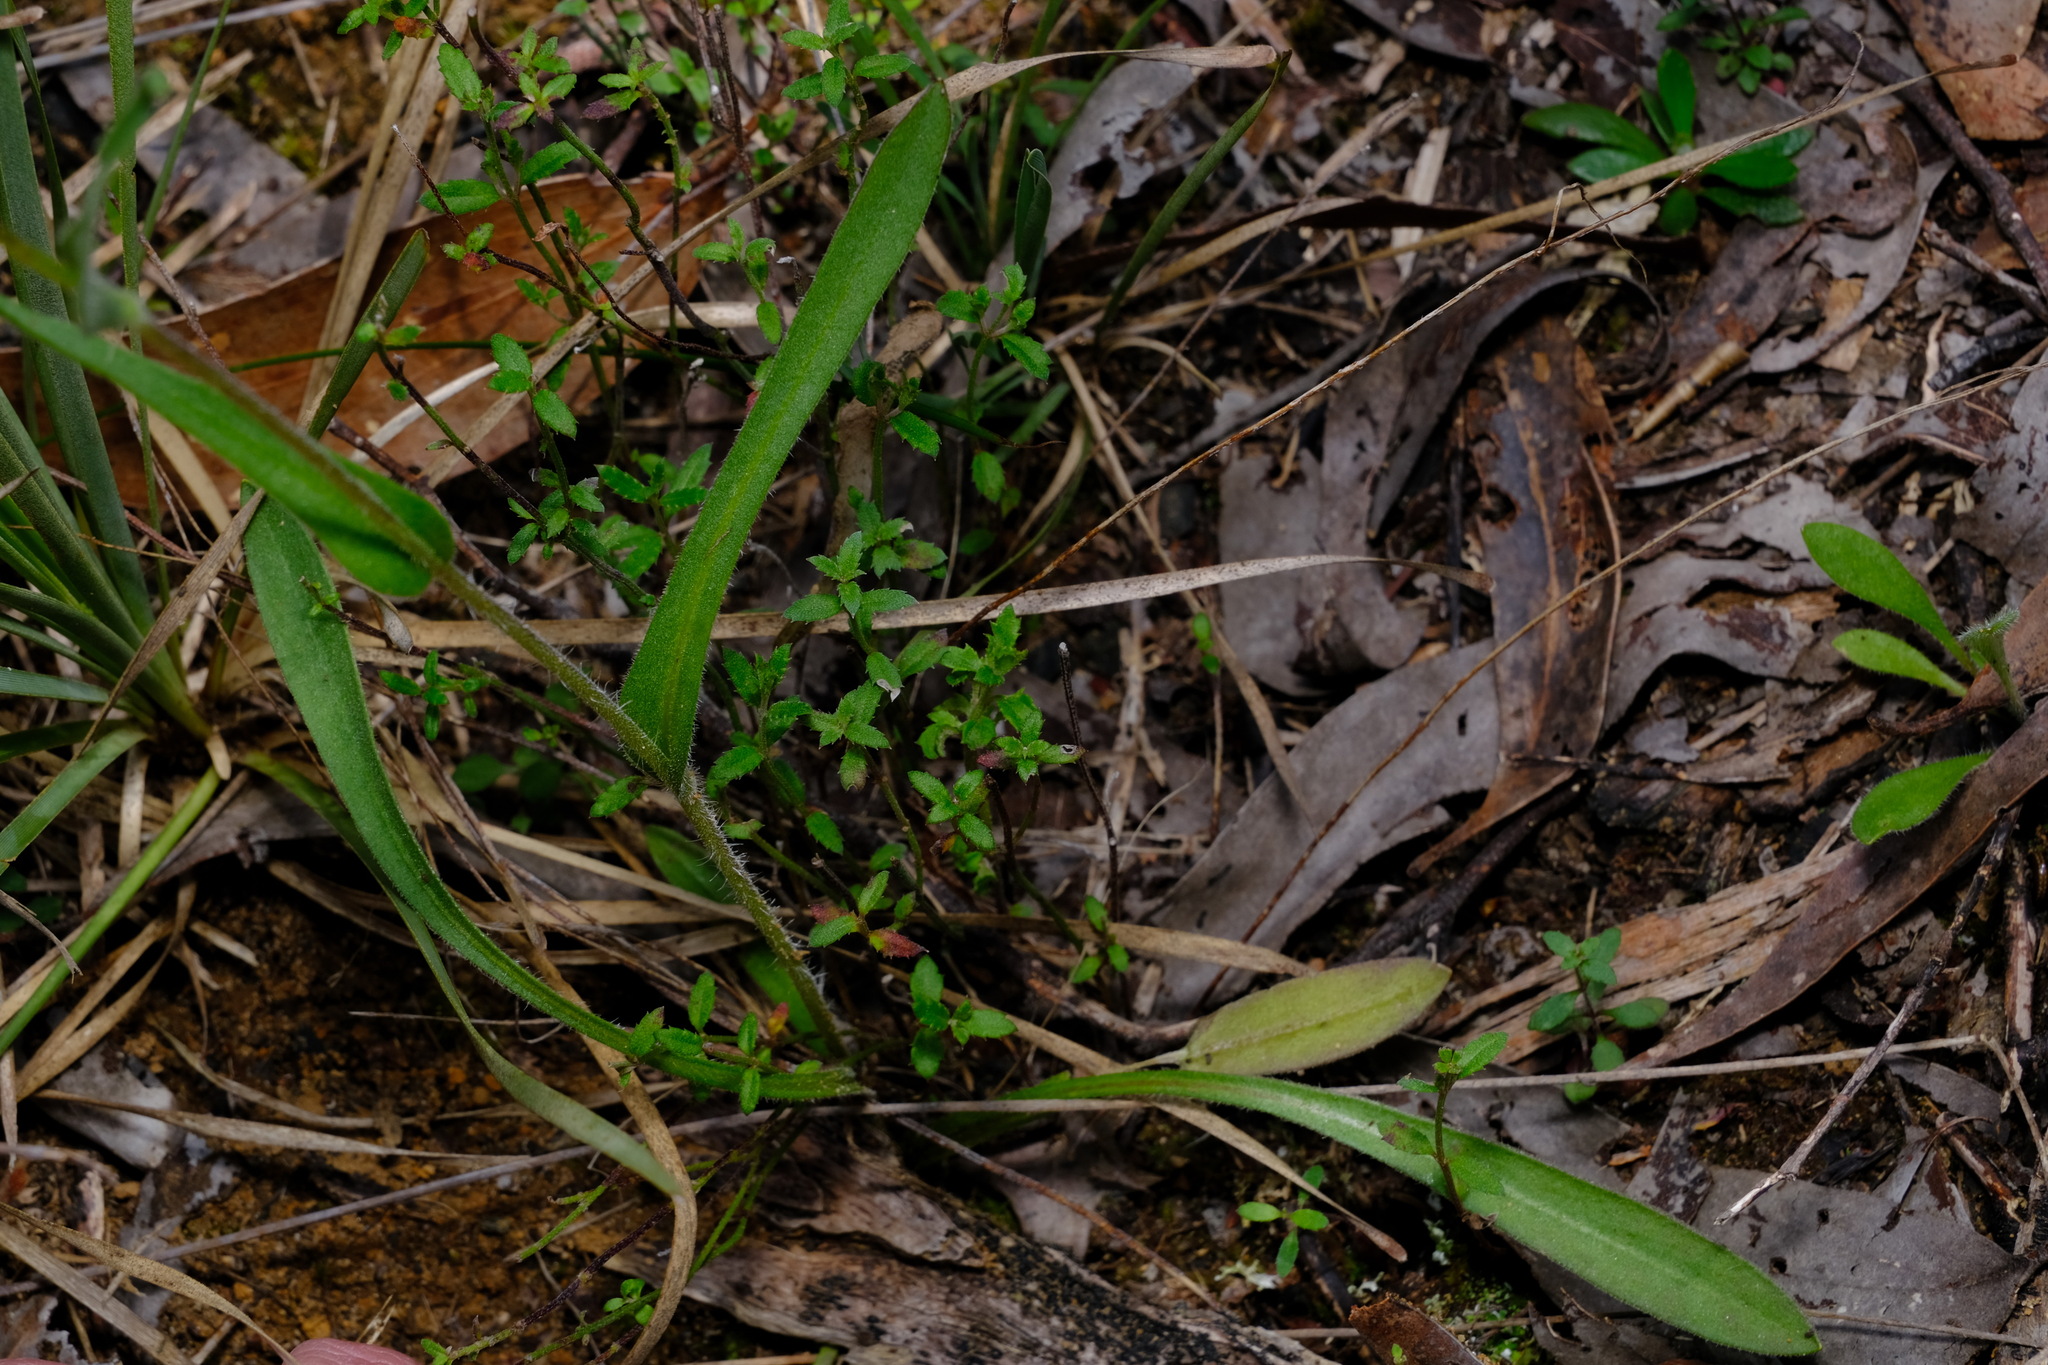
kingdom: Plantae
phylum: Tracheophyta
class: Magnoliopsida
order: Asterales
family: Asteraceae
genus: Craspedia
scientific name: Craspedia variabilis
